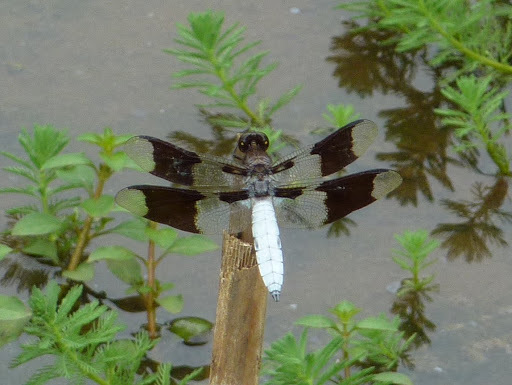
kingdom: Animalia
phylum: Arthropoda
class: Insecta
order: Odonata
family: Libellulidae
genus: Plathemis
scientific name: Plathemis lydia
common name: Common whitetail
